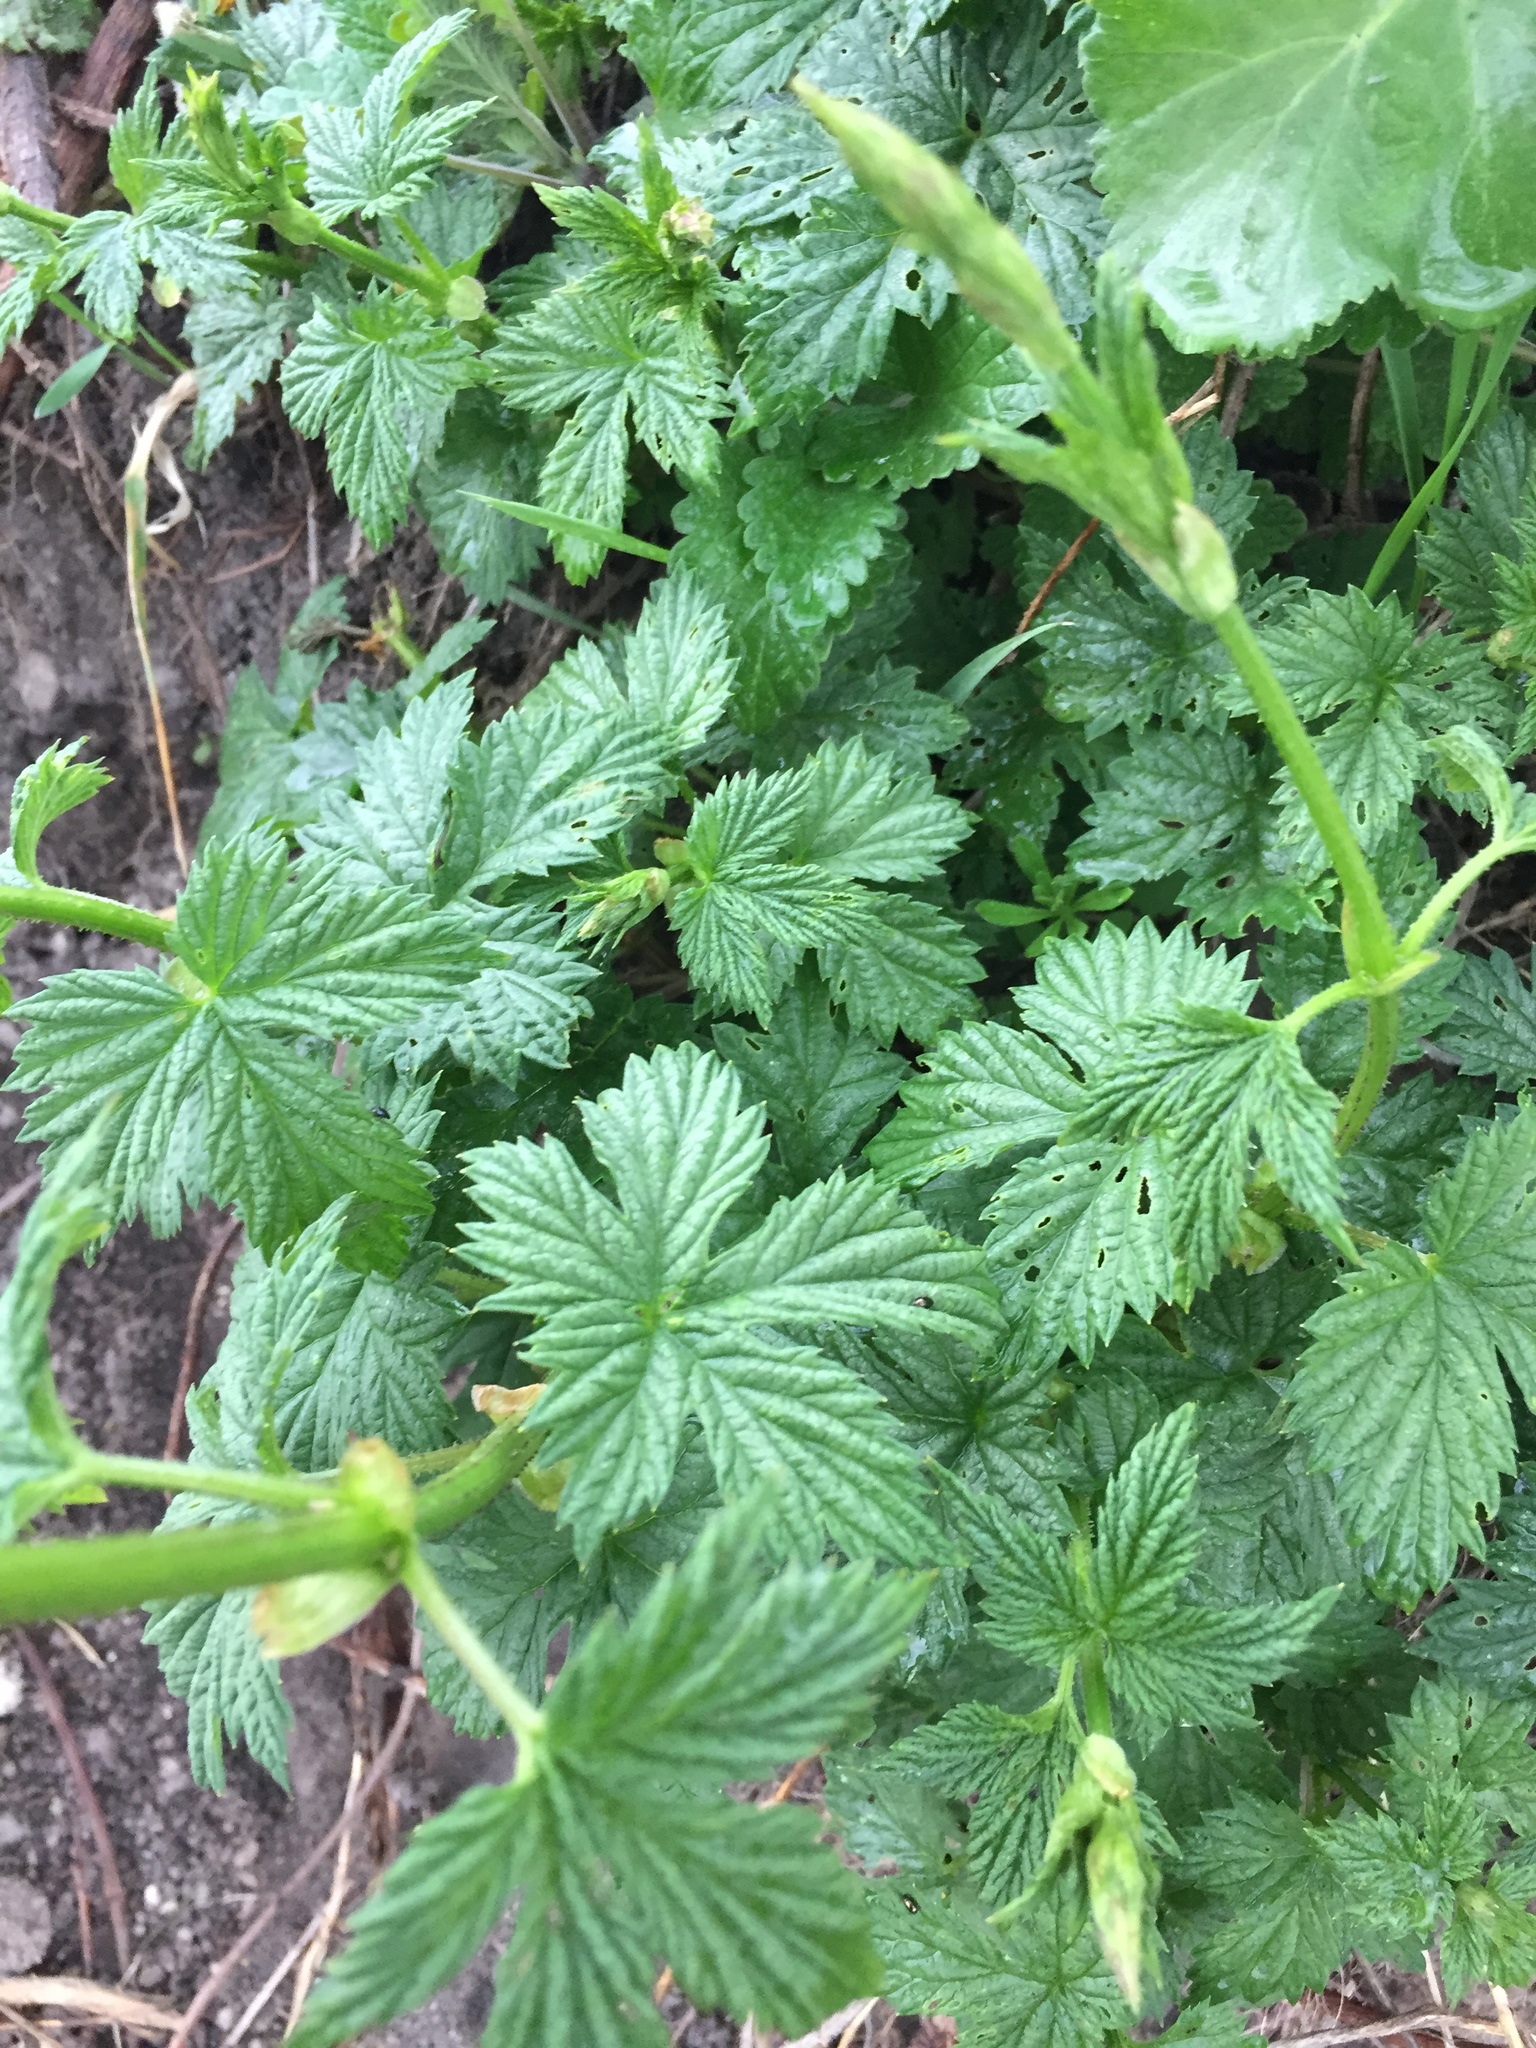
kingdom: Plantae
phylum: Tracheophyta
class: Magnoliopsida
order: Rosales
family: Cannabaceae
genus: Humulus
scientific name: Humulus lupulus
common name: Hop
